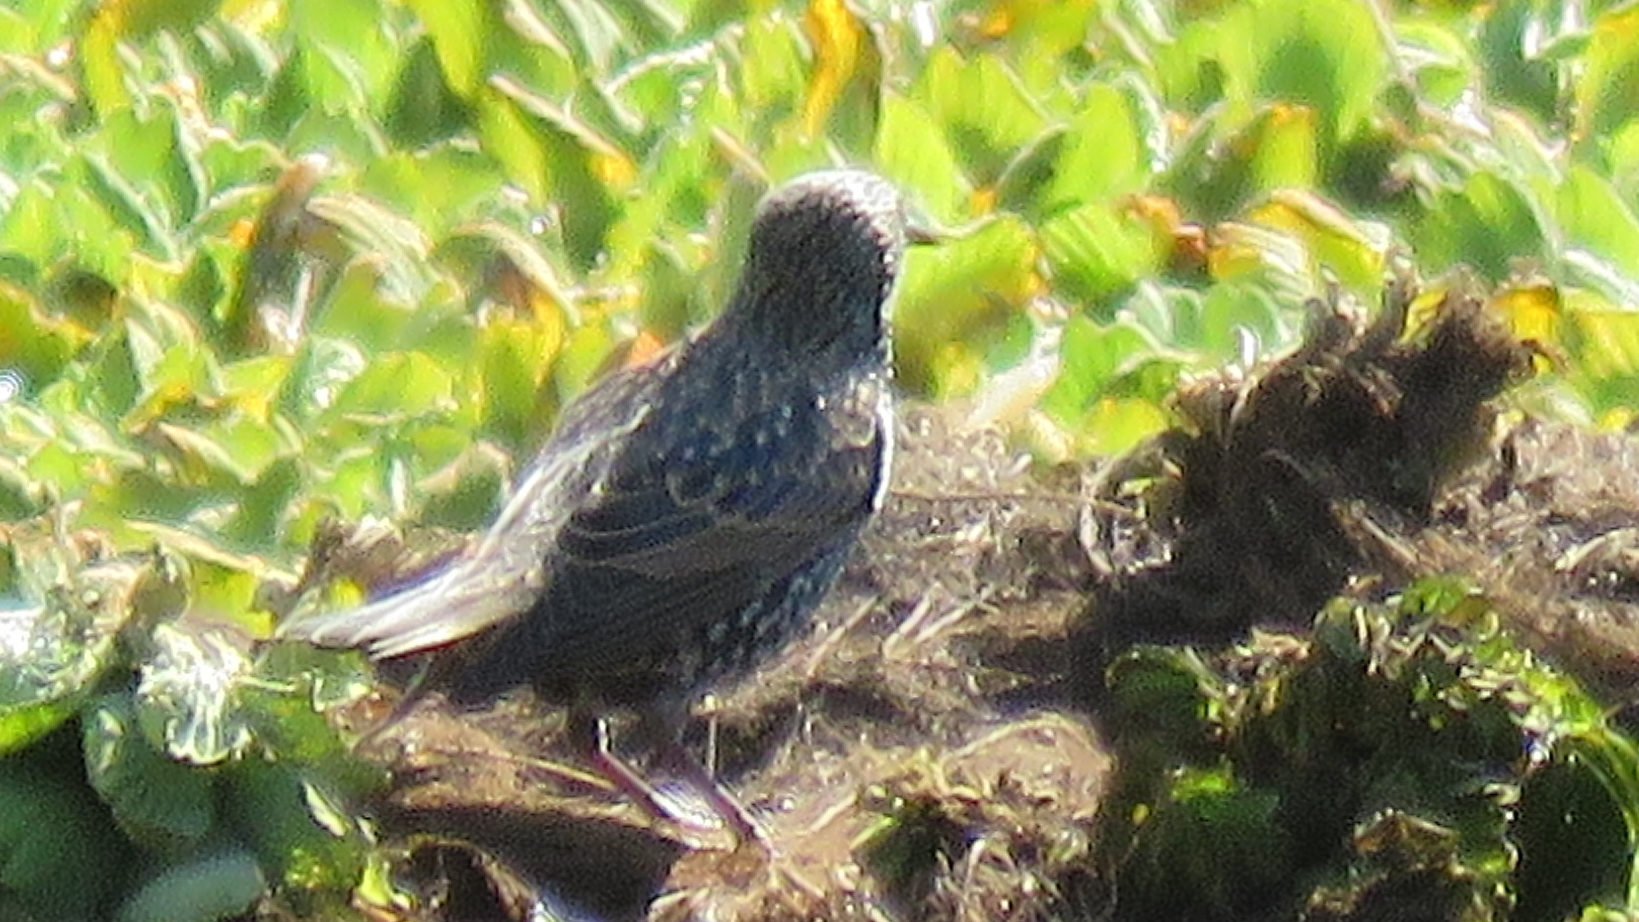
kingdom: Animalia
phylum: Chordata
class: Aves
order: Passeriformes
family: Sturnidae
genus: Sturnus
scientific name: Sturnus vulgaris
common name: Common starling
